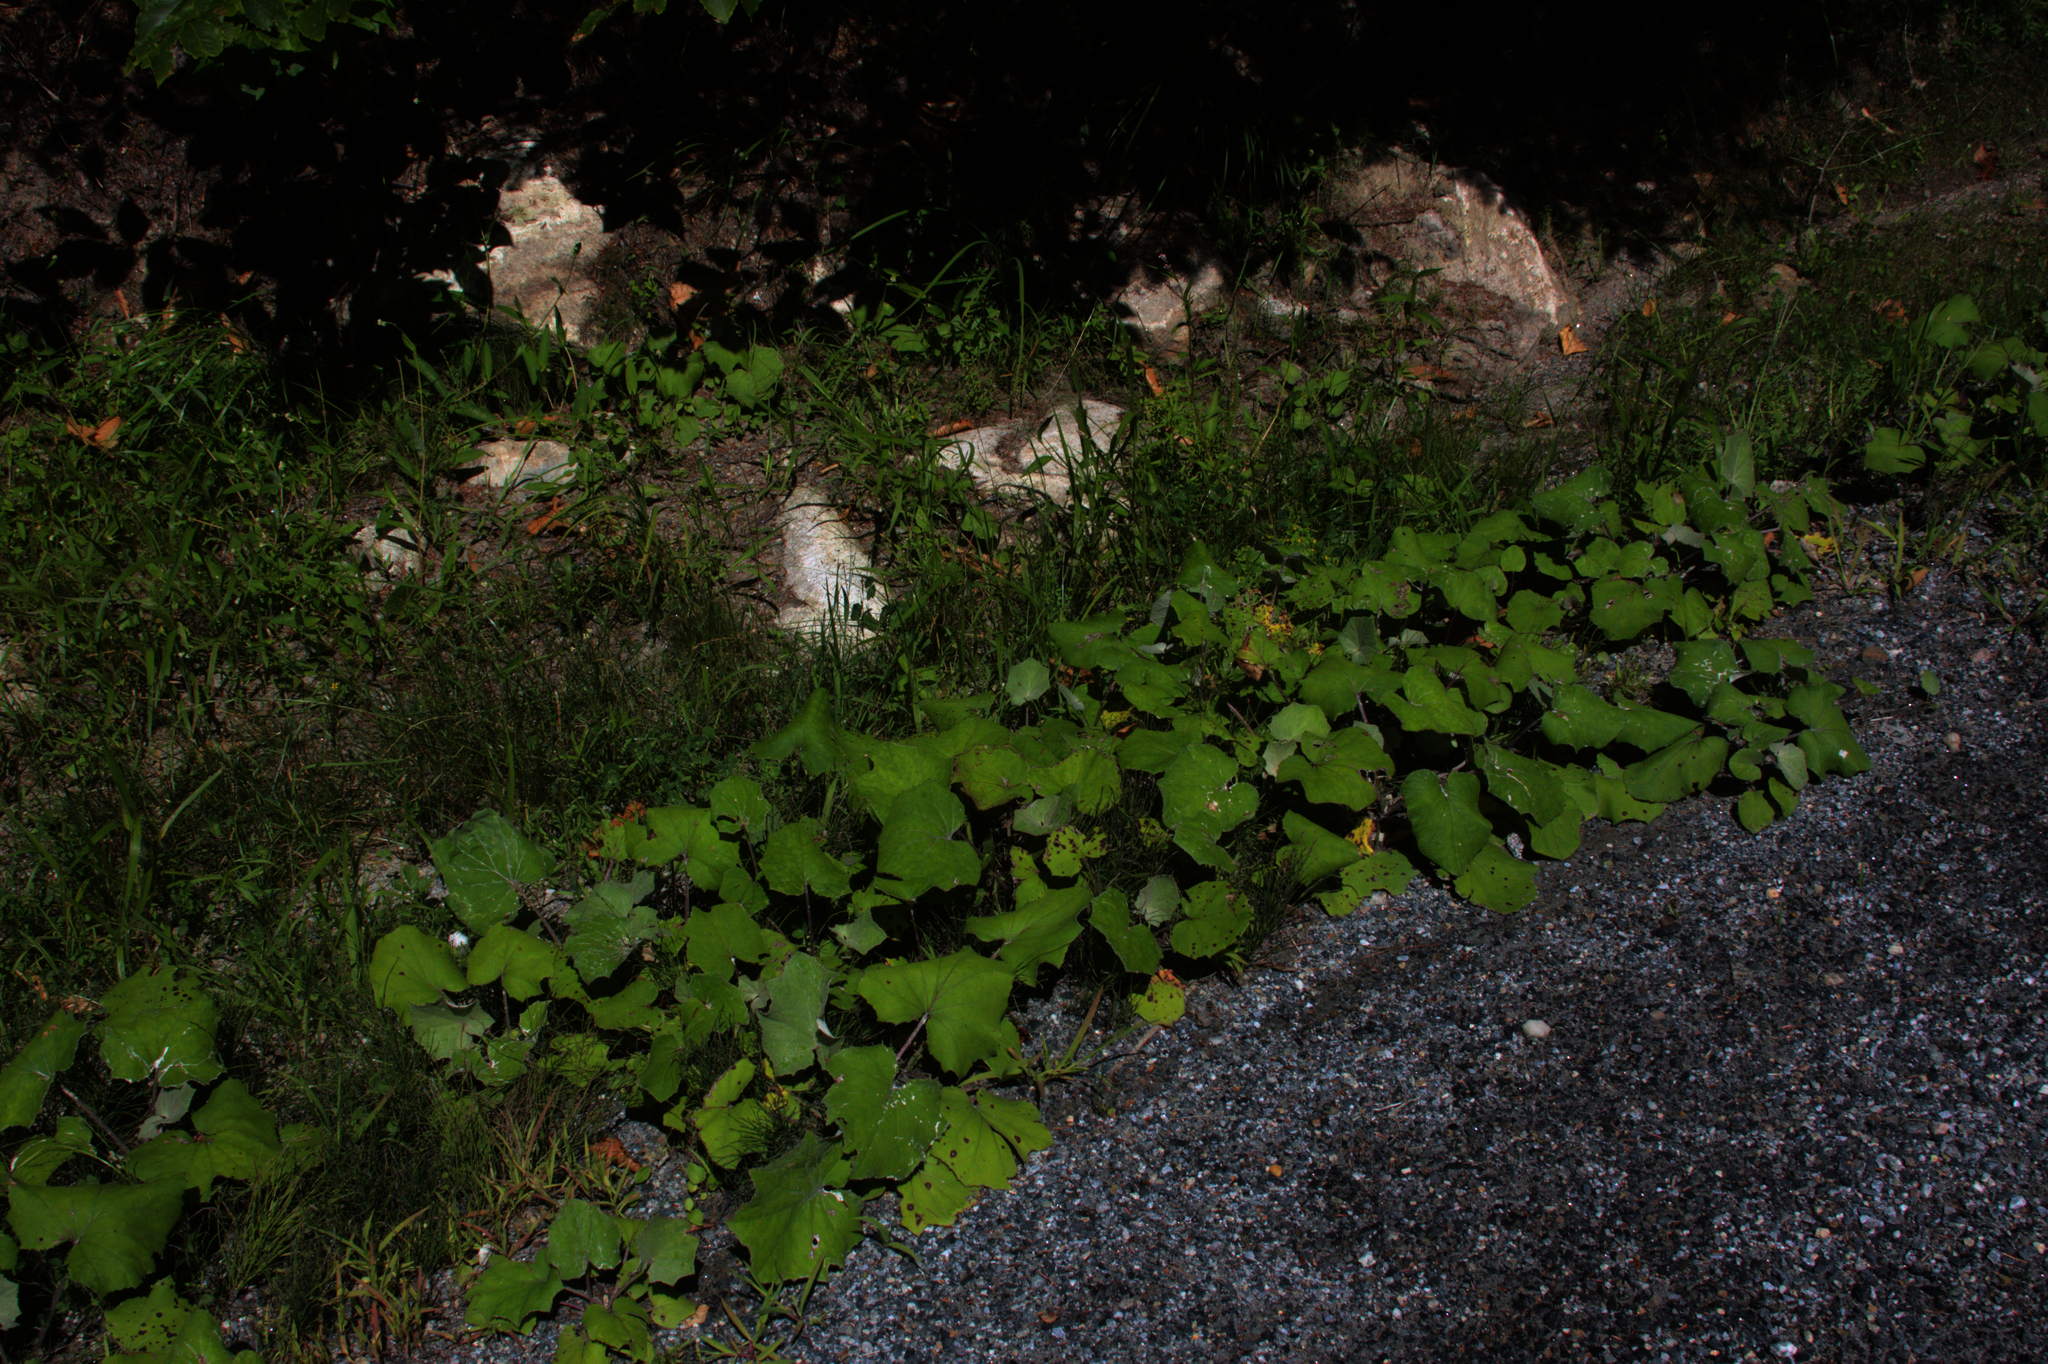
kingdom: Plantae
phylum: Tracheophyta
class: Magnoliopsida
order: Asterales
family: Asteraceae
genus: Tussilago
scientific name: Tussilago farfara
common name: Coltsfoot
